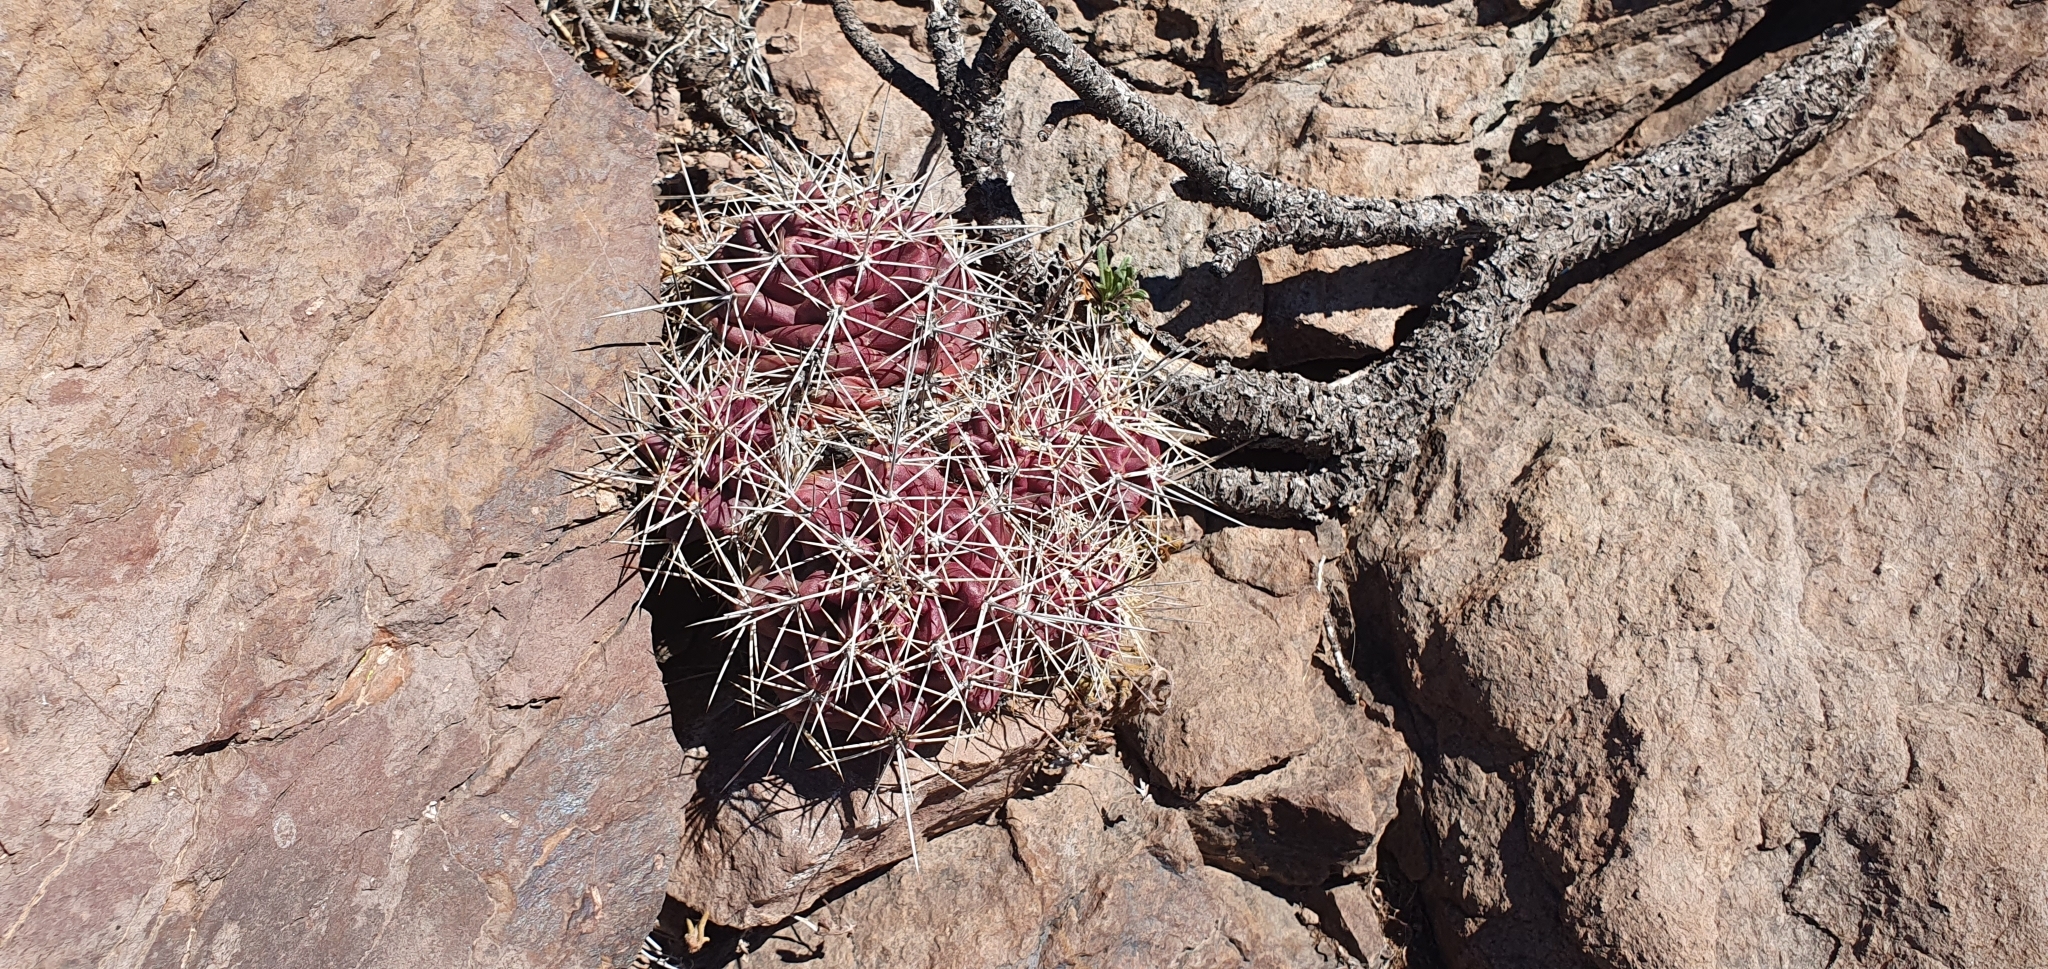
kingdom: Plantae
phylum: Tracheophyta
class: Magnoliopsida
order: Caryophyllales
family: Cactaceae
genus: Echinocereus
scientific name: Echinocereus coccineus
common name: Scarlet hedgehog cactus
